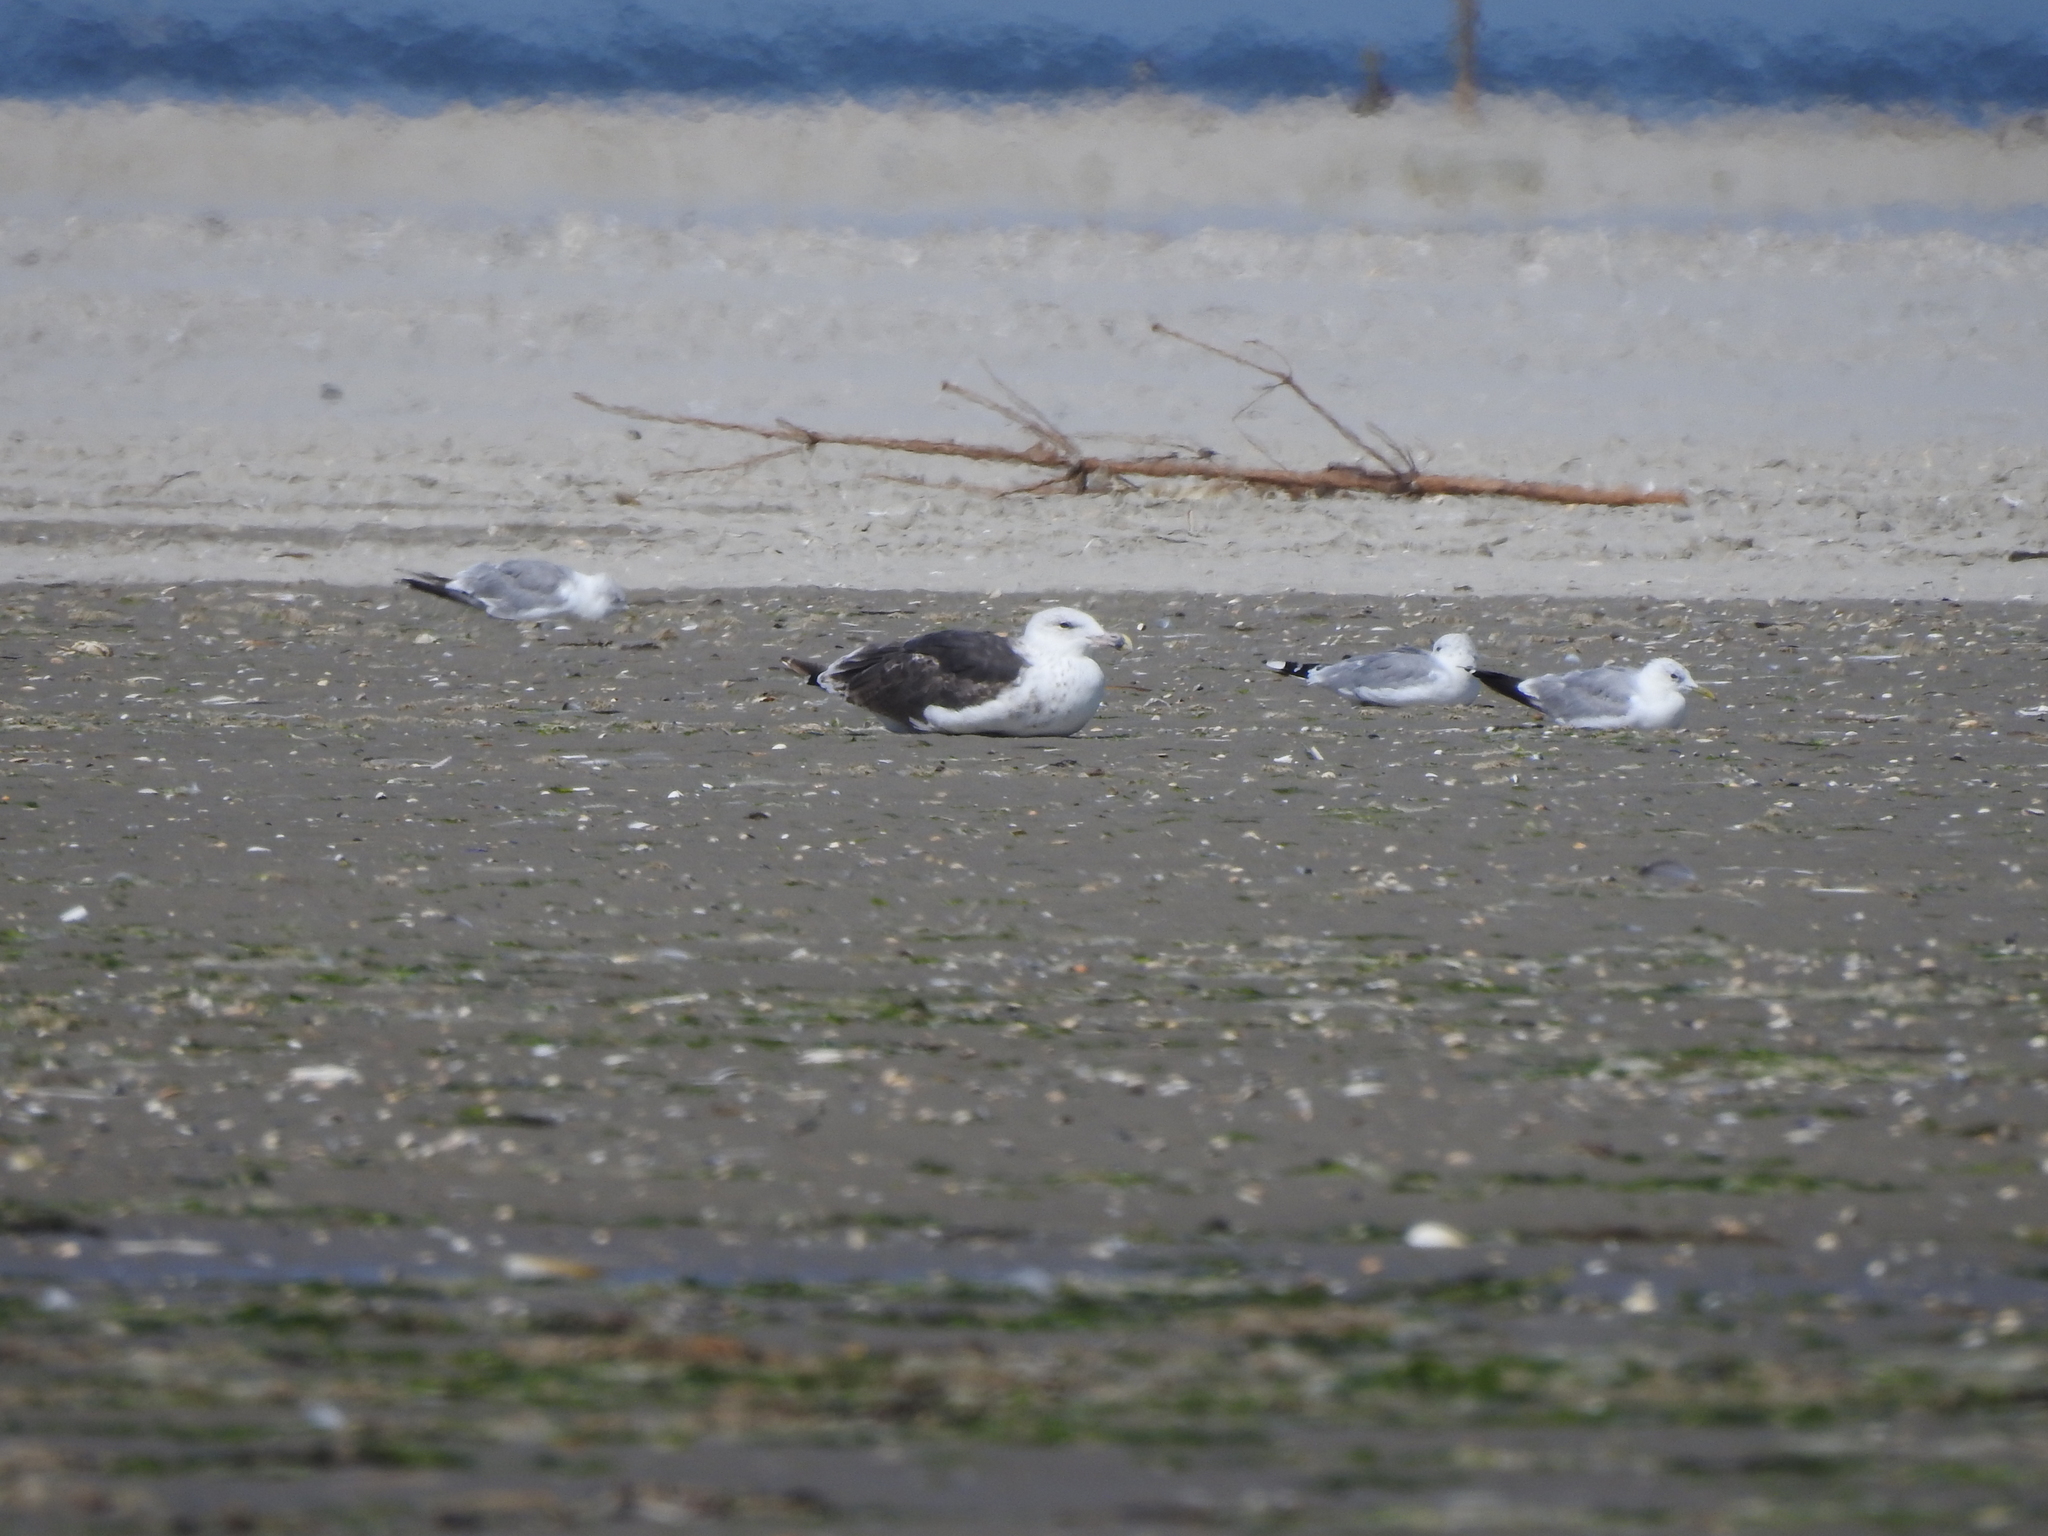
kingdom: Animalia
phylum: Chordata
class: Aves
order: Charadriiformes
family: Laridae
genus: Larus
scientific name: Larus marinus
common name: Great black-backed gull
